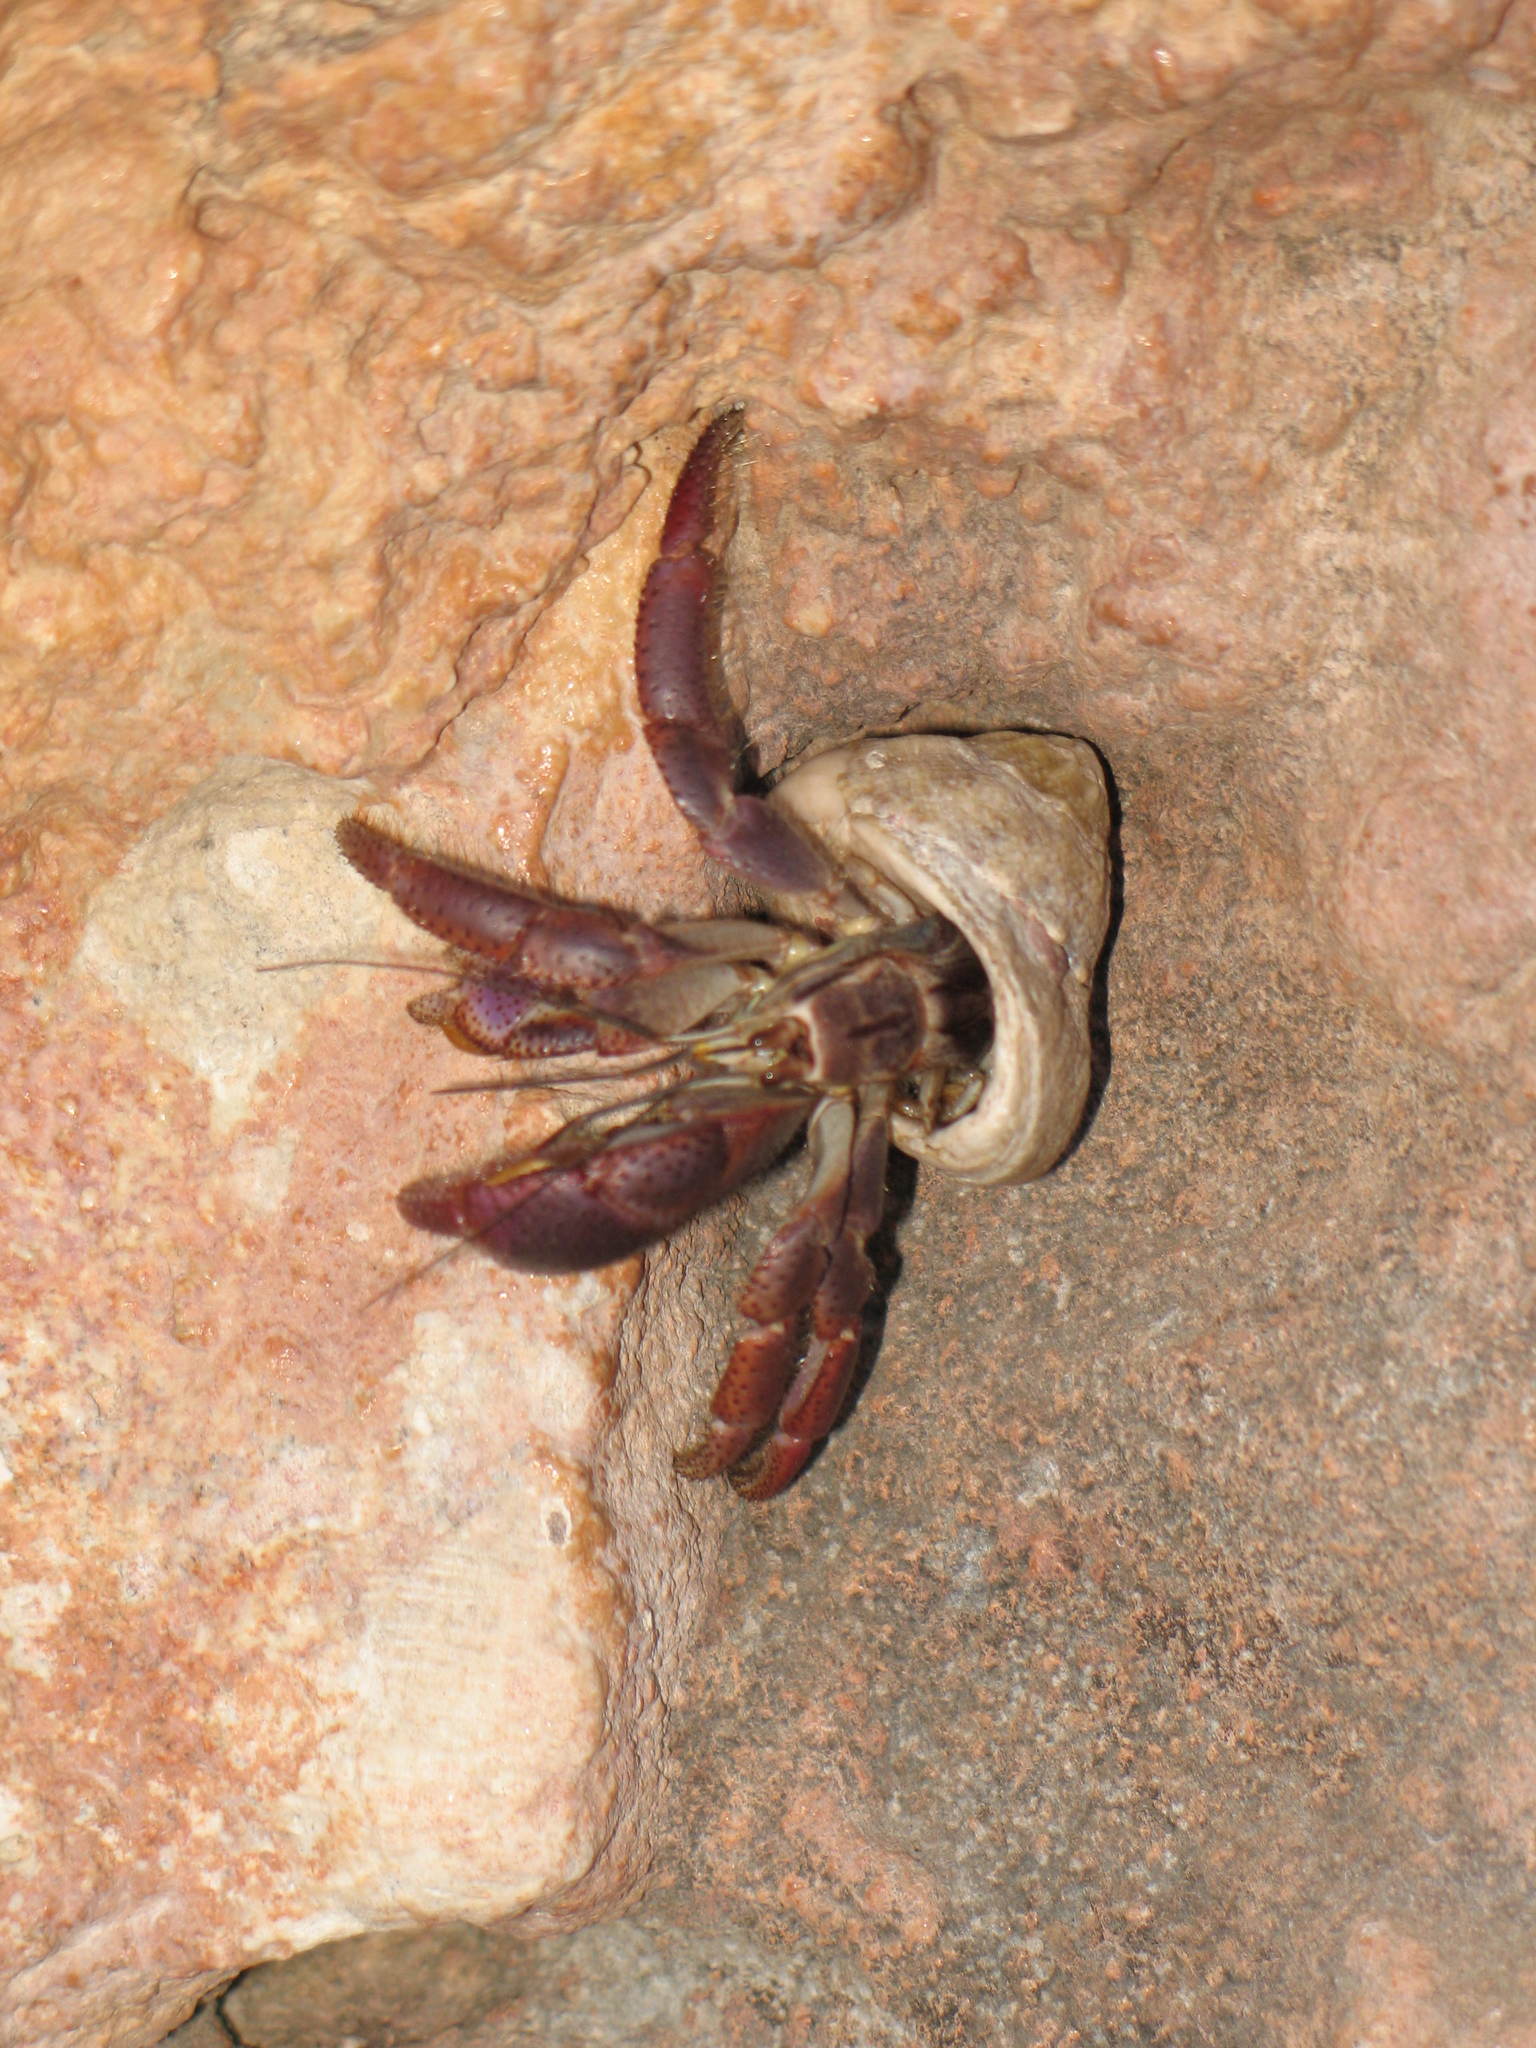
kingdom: Animalia
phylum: Arthropoda
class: Malacostraca
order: Decapoda
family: Coenobitidae
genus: Coenobita
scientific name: Coenobita clypeatus
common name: Caribbean hermit crab
